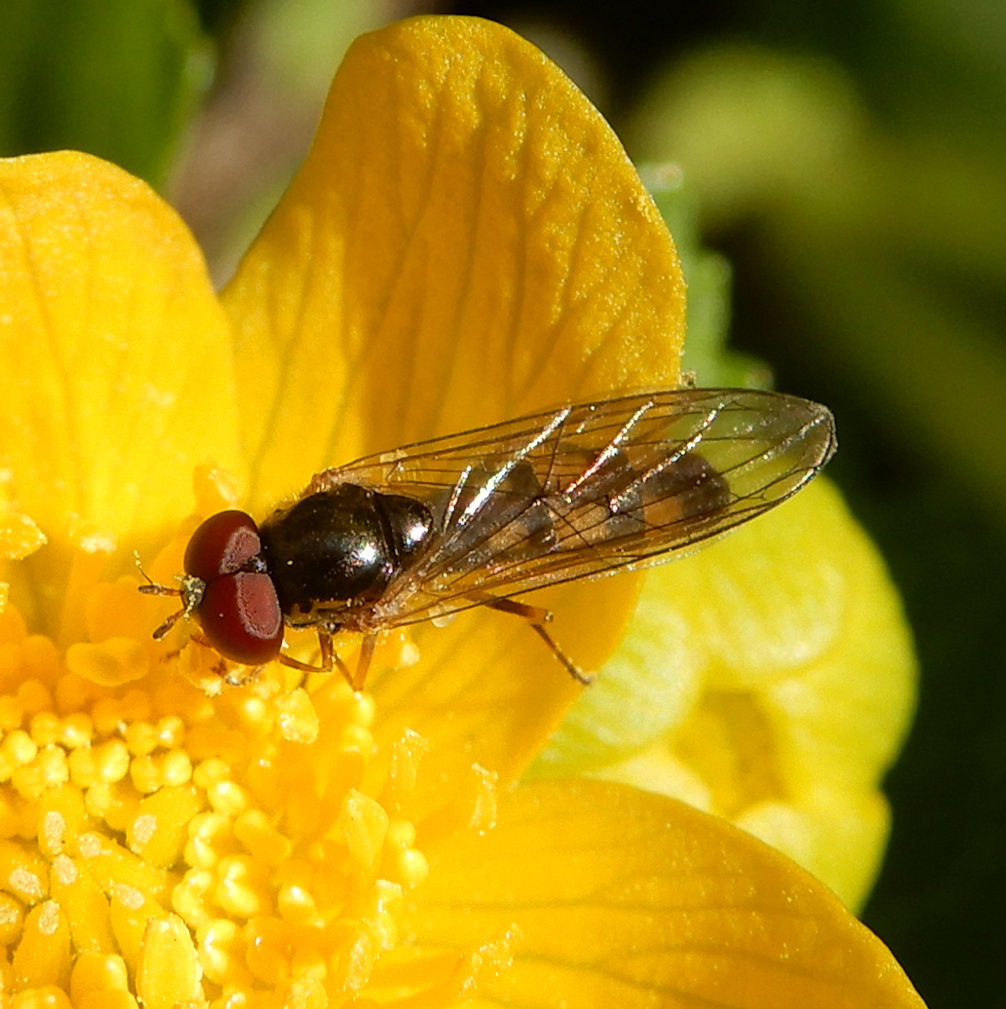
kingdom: Animalia
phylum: Arthropoda
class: Insecta
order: Diptera
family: Syrphidae
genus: Melanostoma
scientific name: Melanostoma mellina
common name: Hover fly
